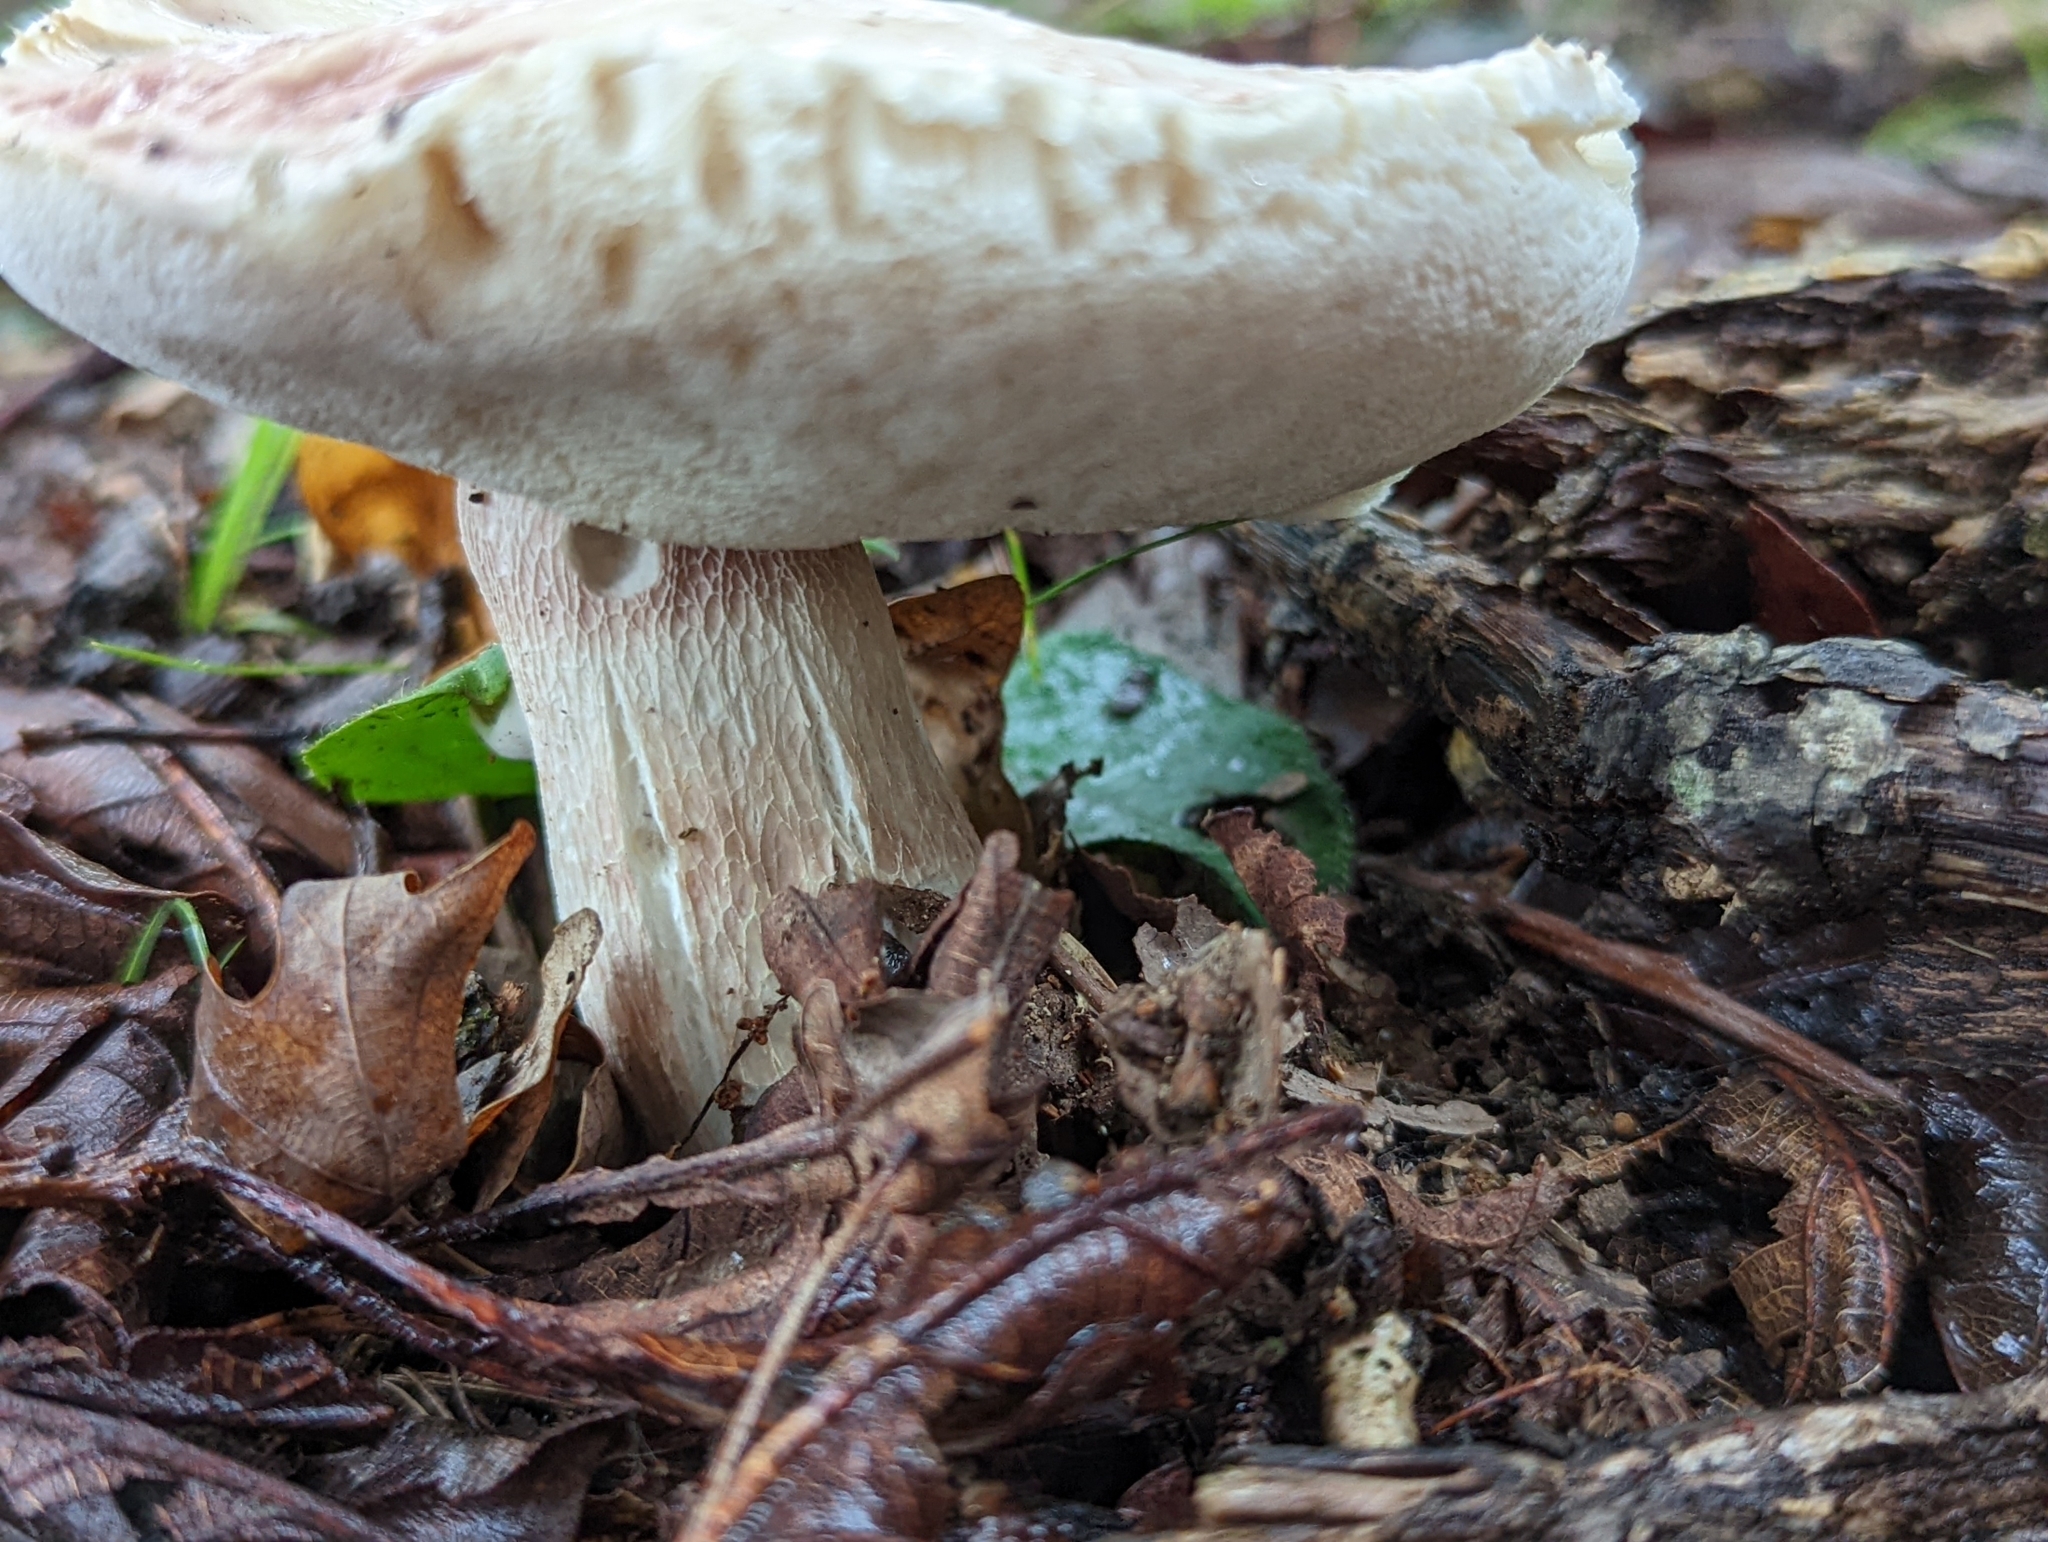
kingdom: Fungi
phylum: Basidiomycota
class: Agaricomycetes
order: Boletales
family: Boletaceae
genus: Xanthoconium
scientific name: Xanthoconium separans
